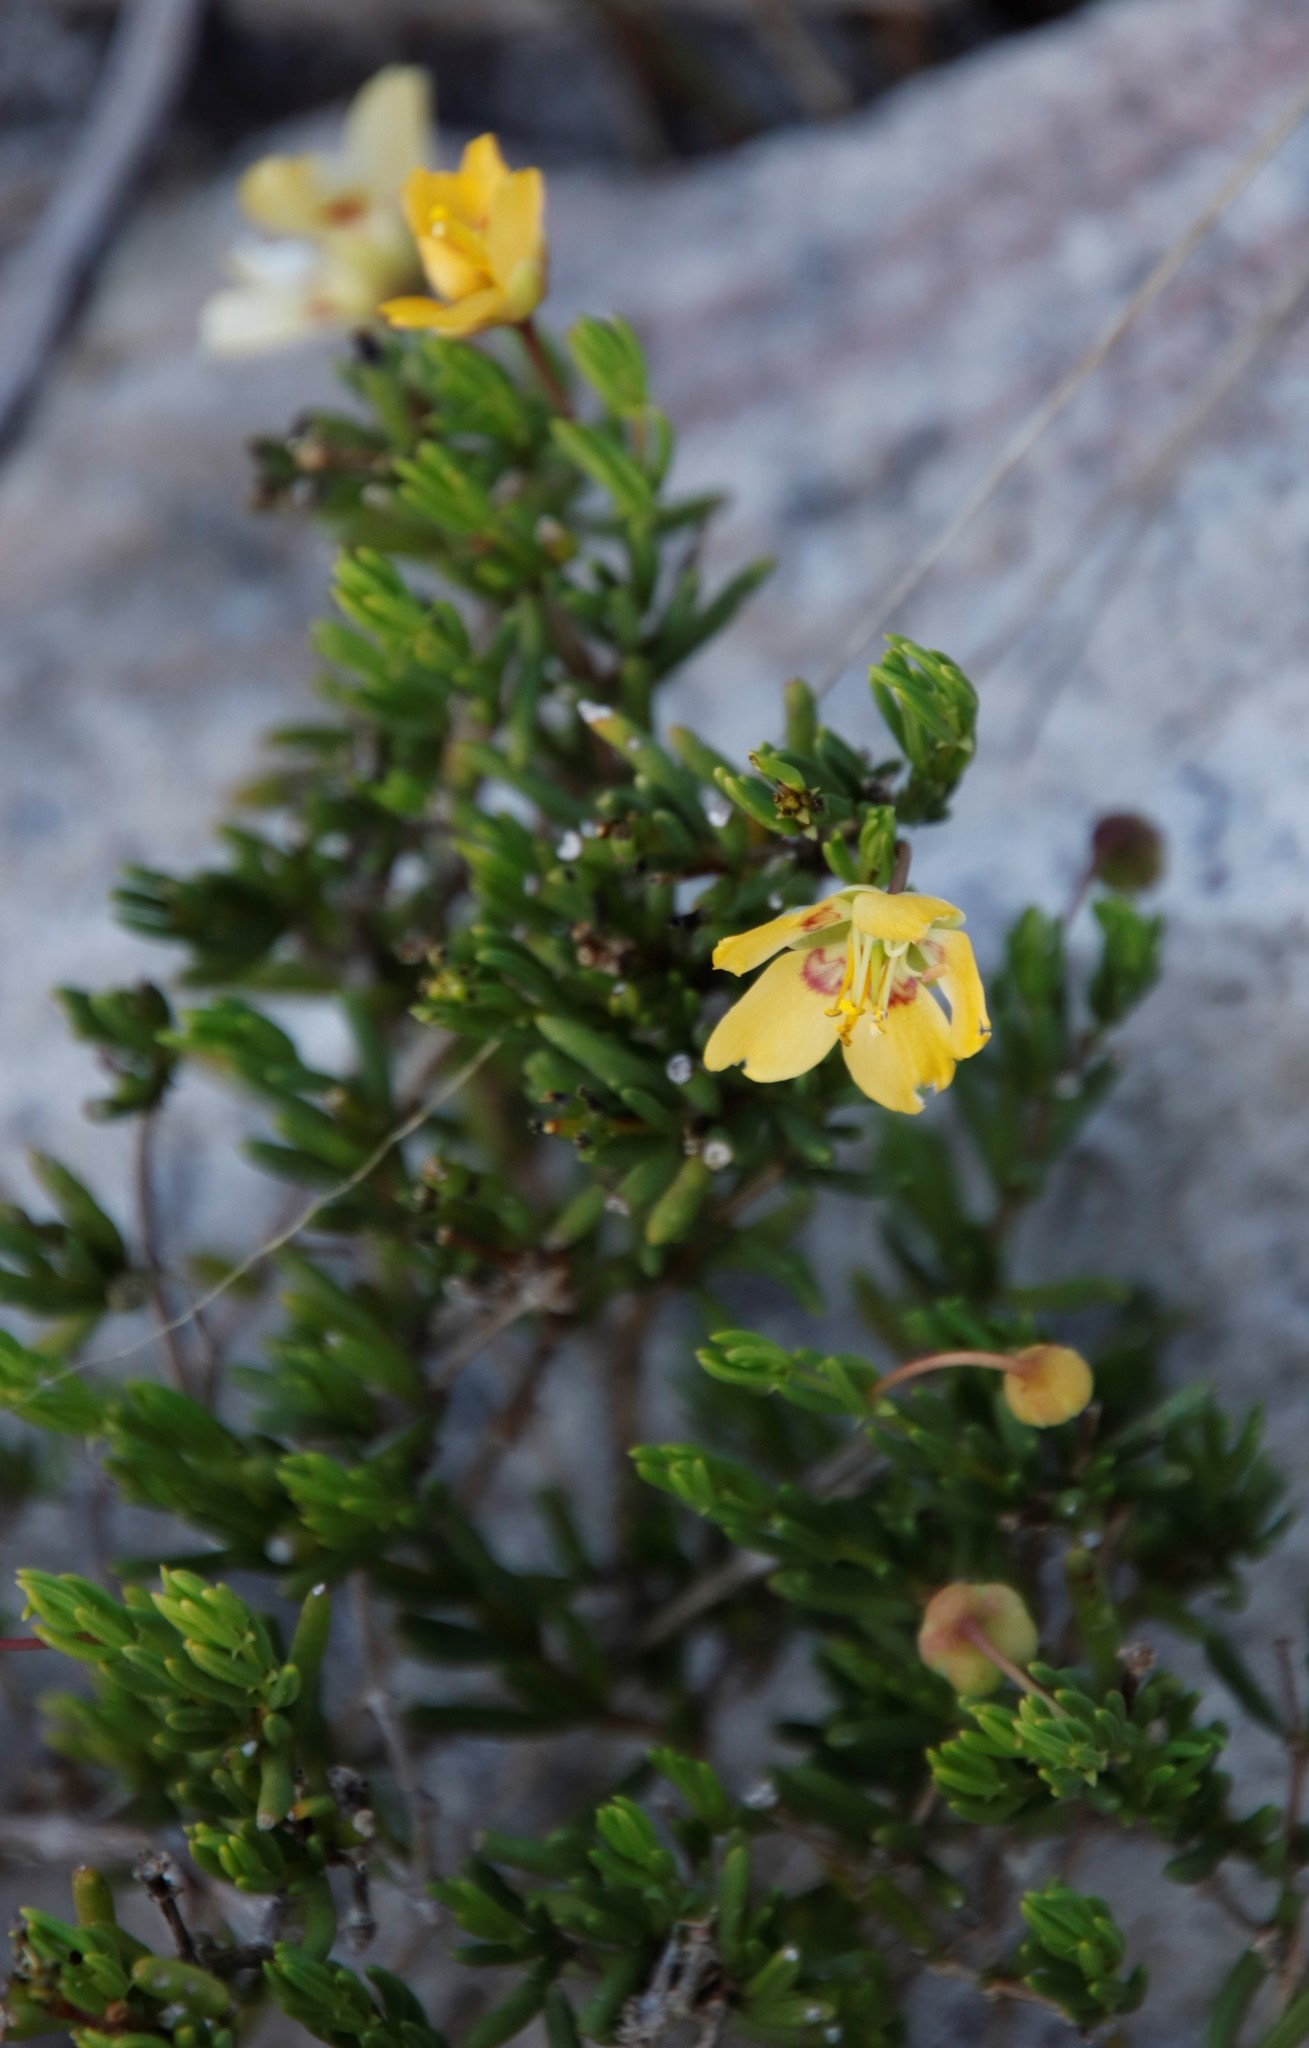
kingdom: Plantae
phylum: Tracheophyta
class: Magnoliopsida
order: Zygophyllales
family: Zygophyllaceae
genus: Roepera
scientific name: Roepera spinosa
